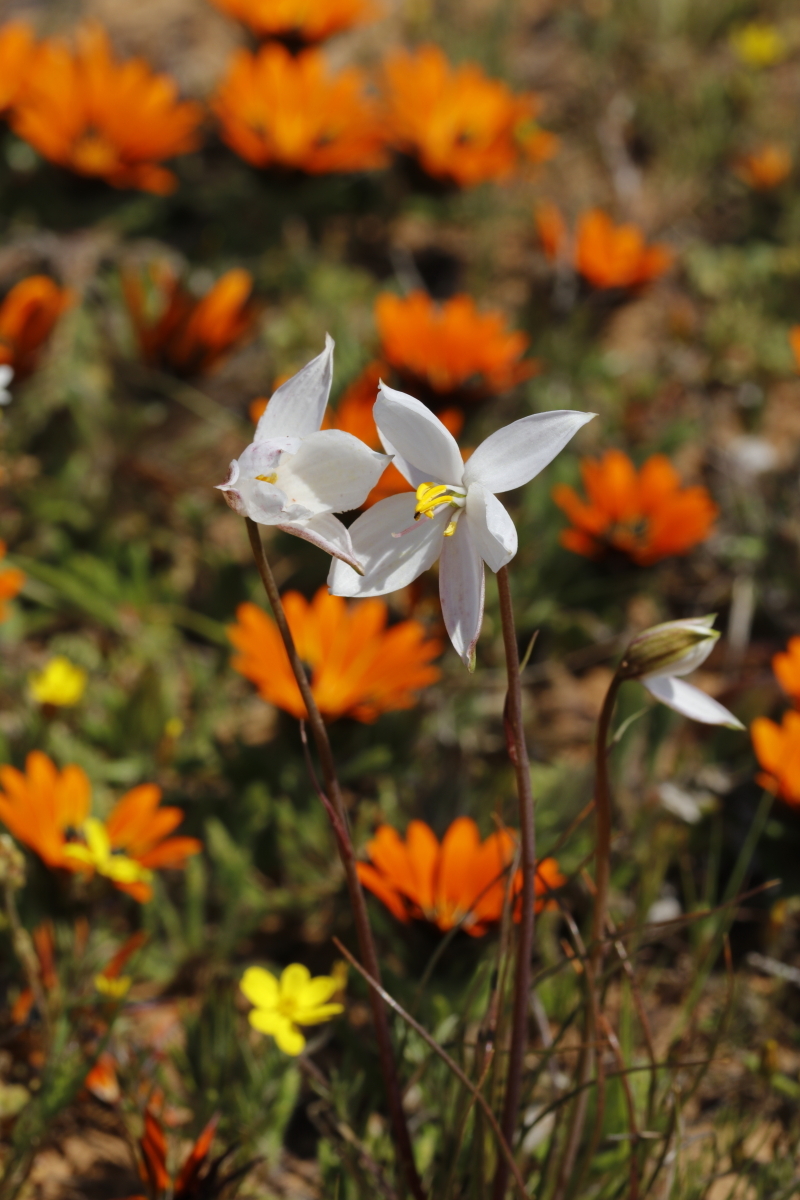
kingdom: Plantae
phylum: Tracheophyta
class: Liliopsida
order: Asparagales
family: Tecophilaeaceae
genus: Cyanella
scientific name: Cyanella alba
